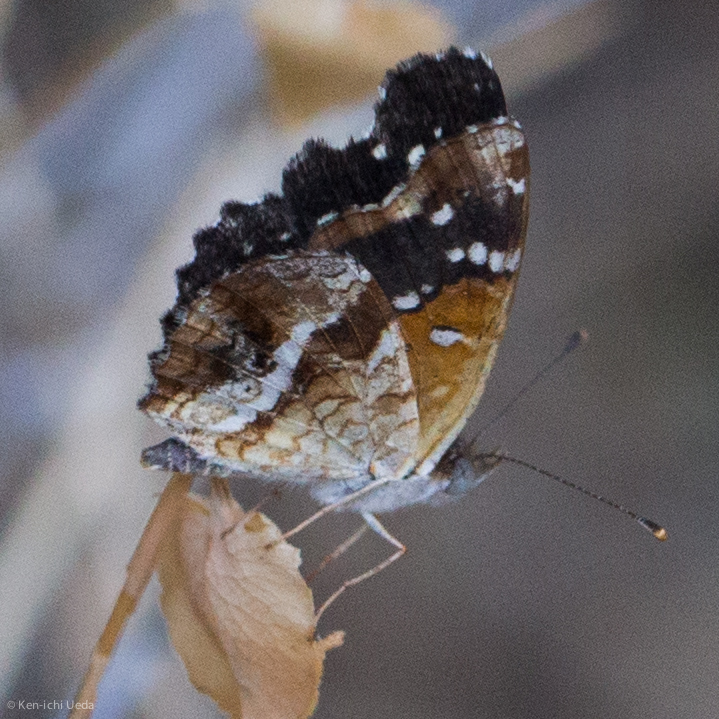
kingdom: Animalia
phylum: Arthropoda
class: Insecta
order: Lepidoptera
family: Nymphalidae
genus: Anthanassa
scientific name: Anthanassa texana
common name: Texan crescent
